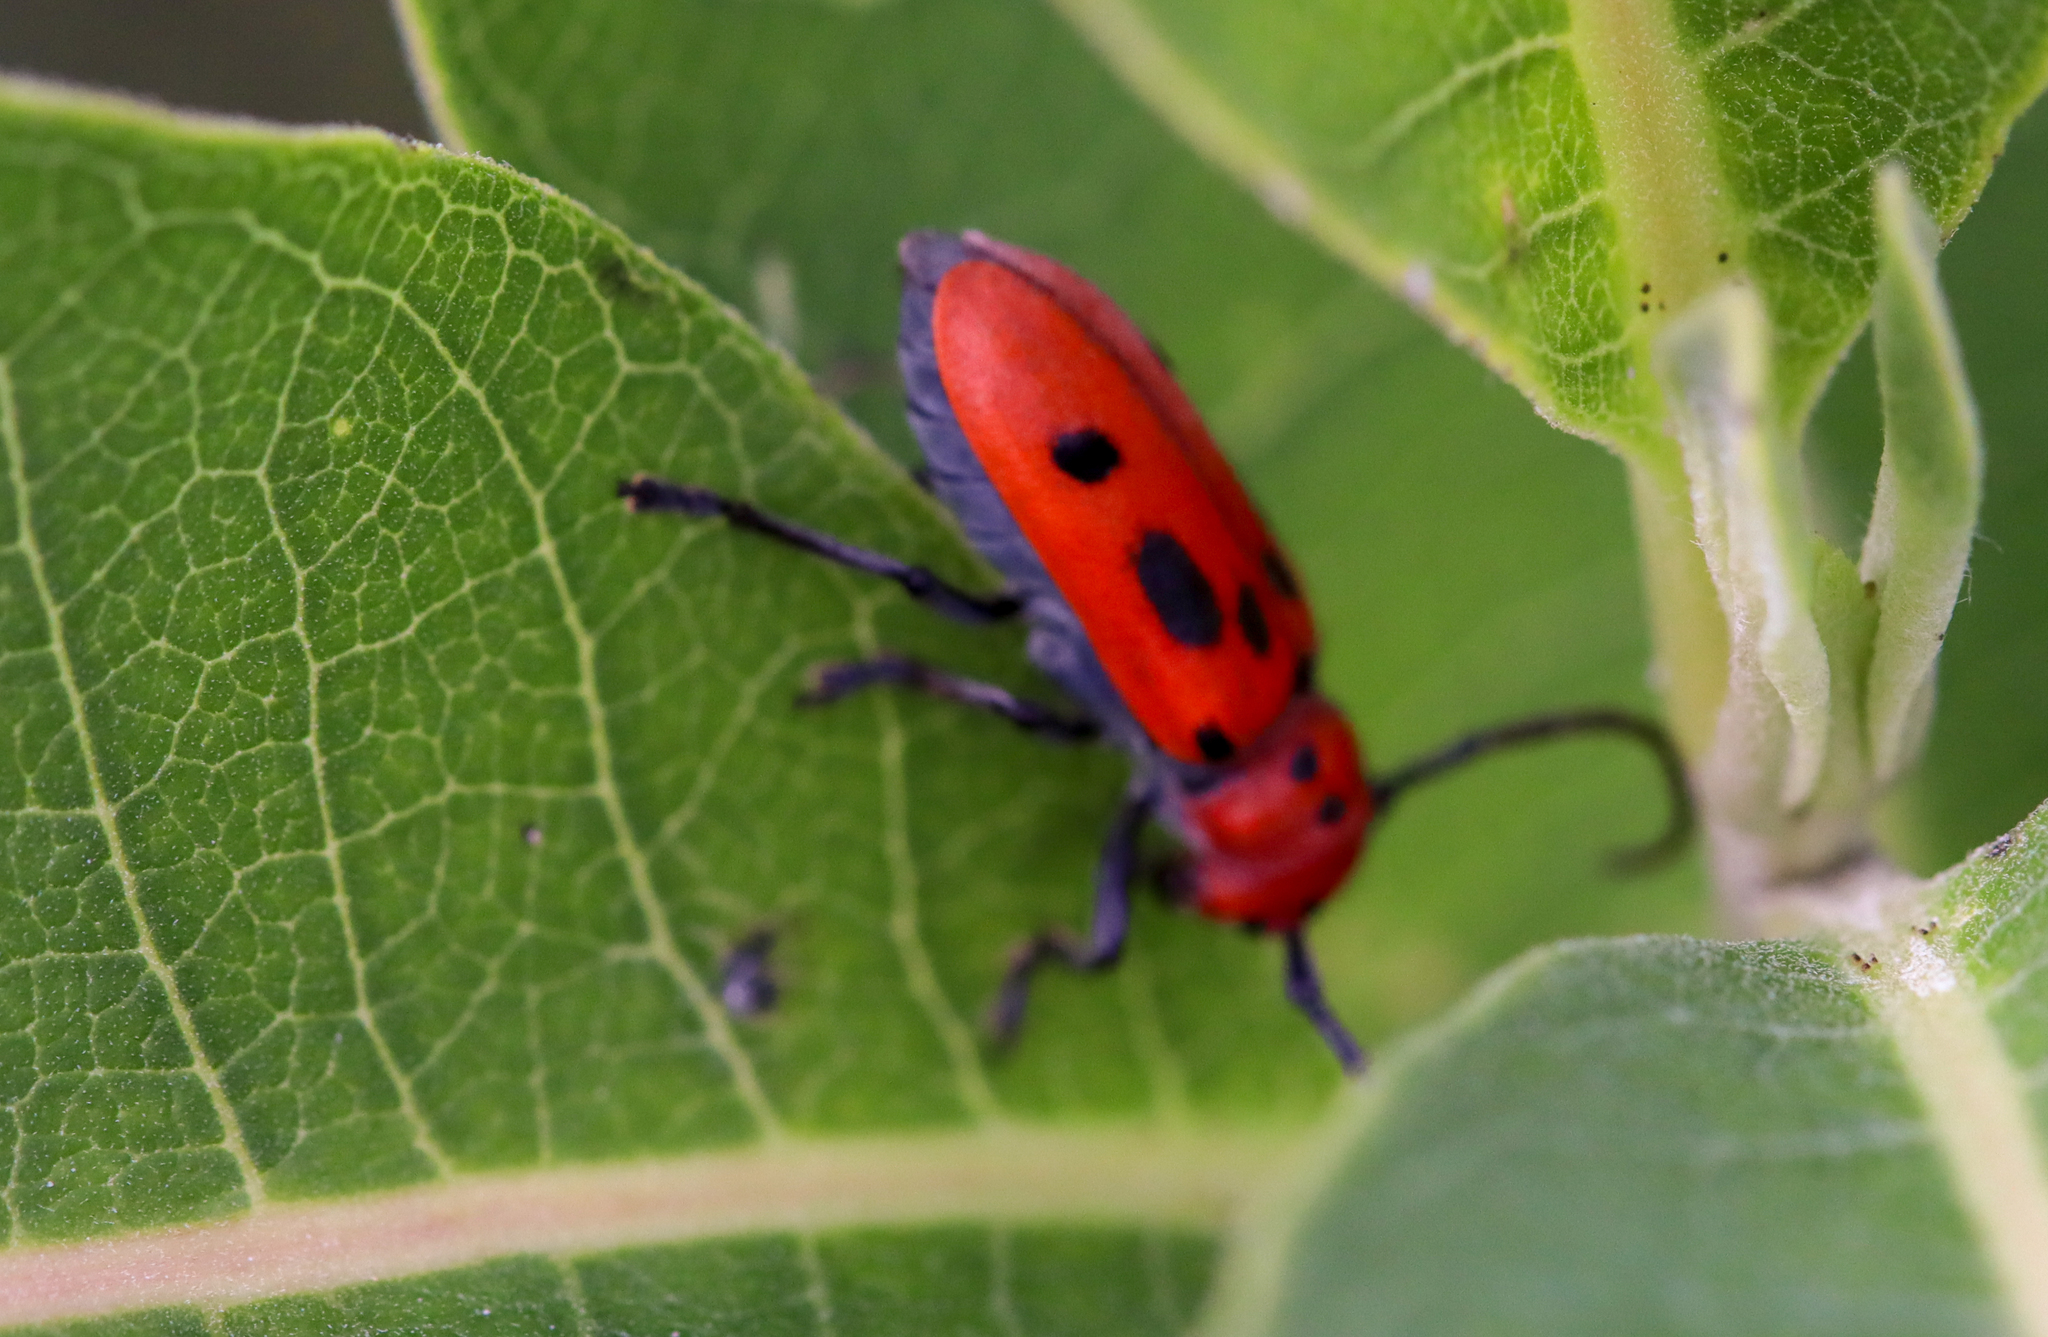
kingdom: Animalia
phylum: Arthropoda
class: Insecta
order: Coleoptera
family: Cerambycidae
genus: Tetraopes
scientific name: Tetraopes tetrophthalmus
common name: Red milkweed beetle
